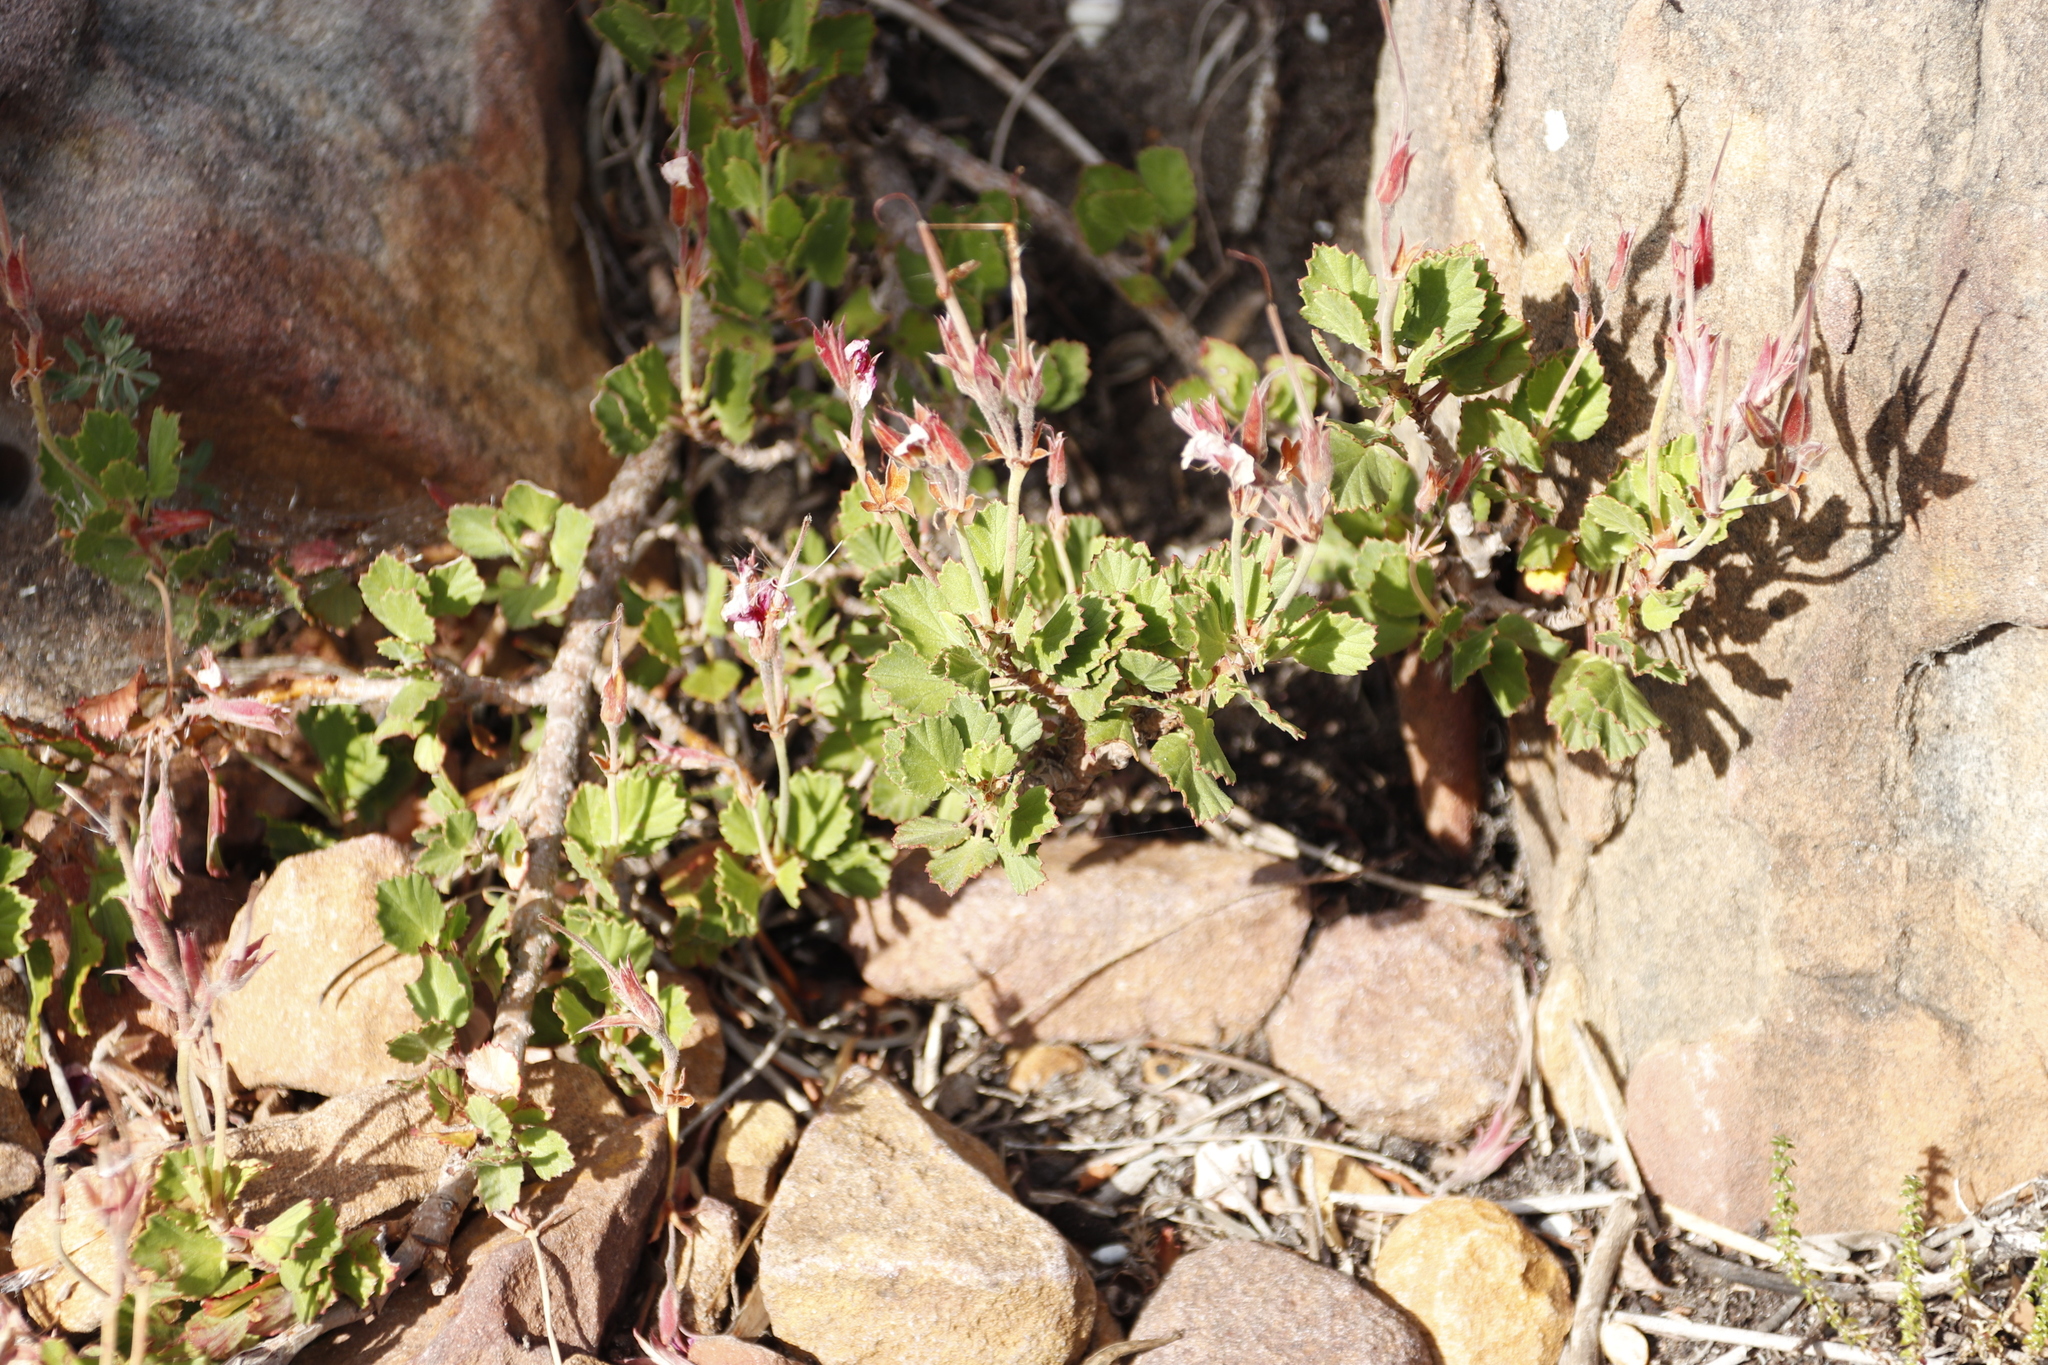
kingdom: Plantae
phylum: Tracheophyta
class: Magnoliopsida
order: Geraniales
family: Geraniaceae
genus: Pelargonium
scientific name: Pelargonium betulinum
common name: Birch-leaf pelargonium
